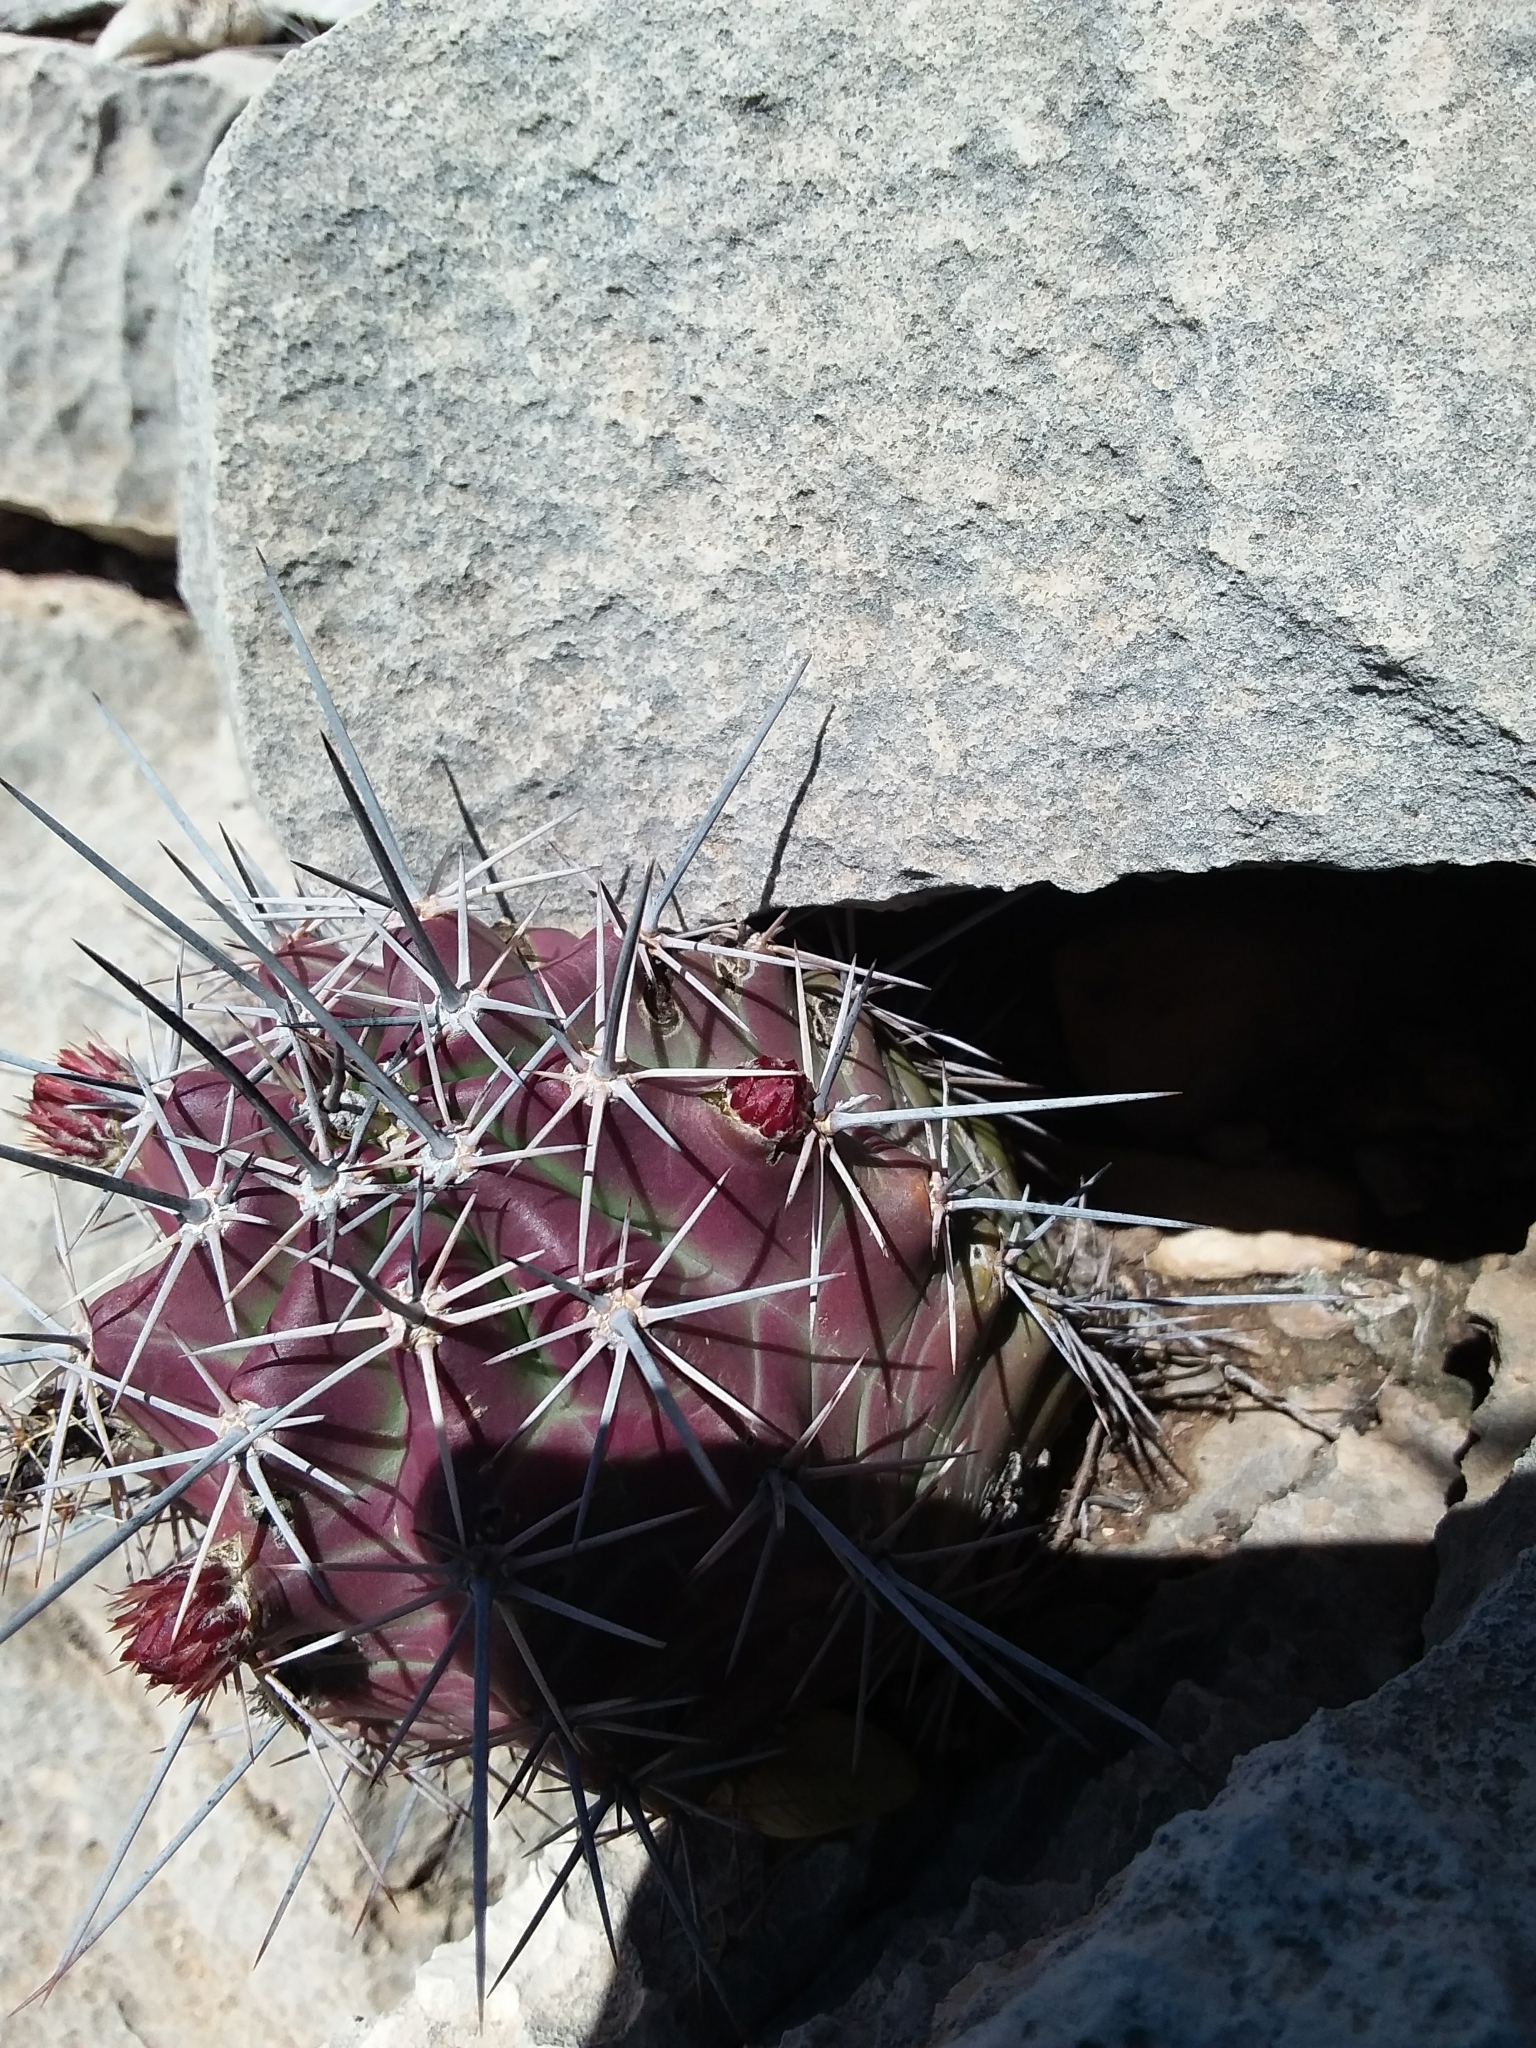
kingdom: Plantae
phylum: Tracheophyta
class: Magnoliopsida
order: Caryophyllales
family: Cactaceae
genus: Echinocereus
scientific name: Echinocereus coccineus
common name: Scarlet hedgehog cactus
